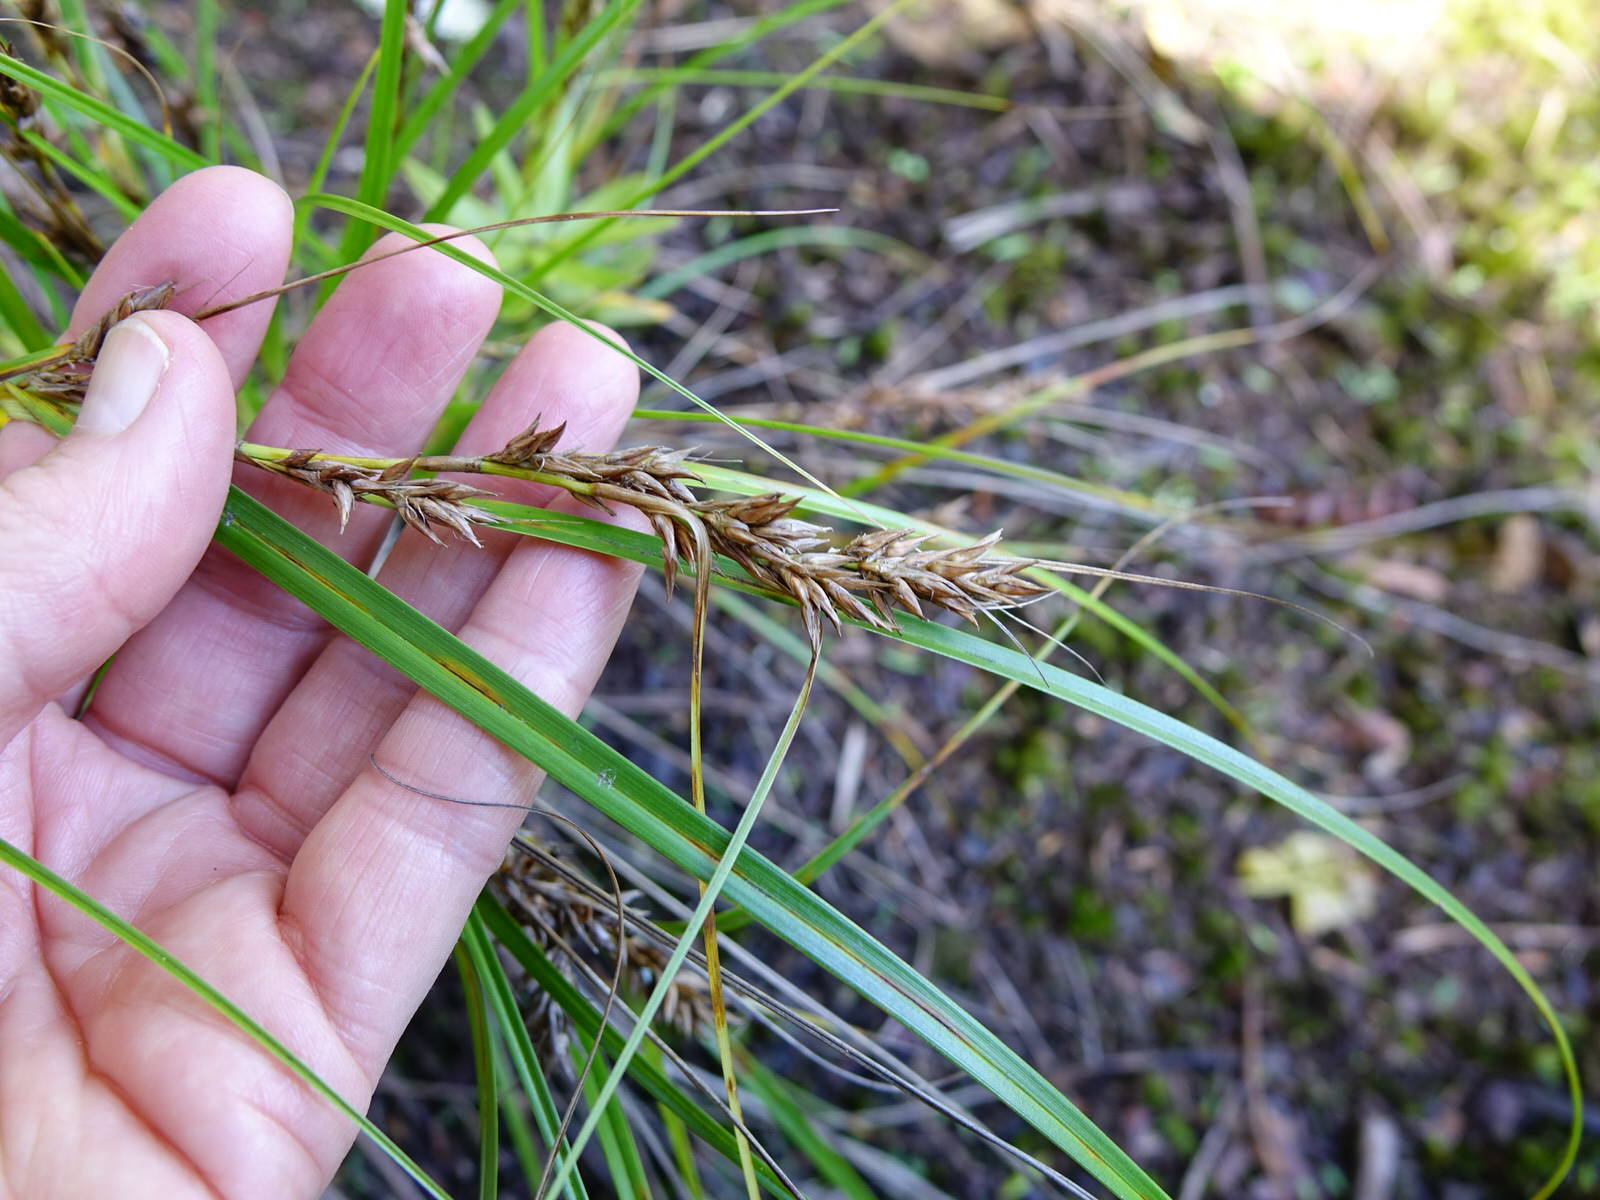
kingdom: Plantae
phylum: Tracheophyta
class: Liliopsida
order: Poales
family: Cyperaceae
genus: Morelotia
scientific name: Morelotia affinis
